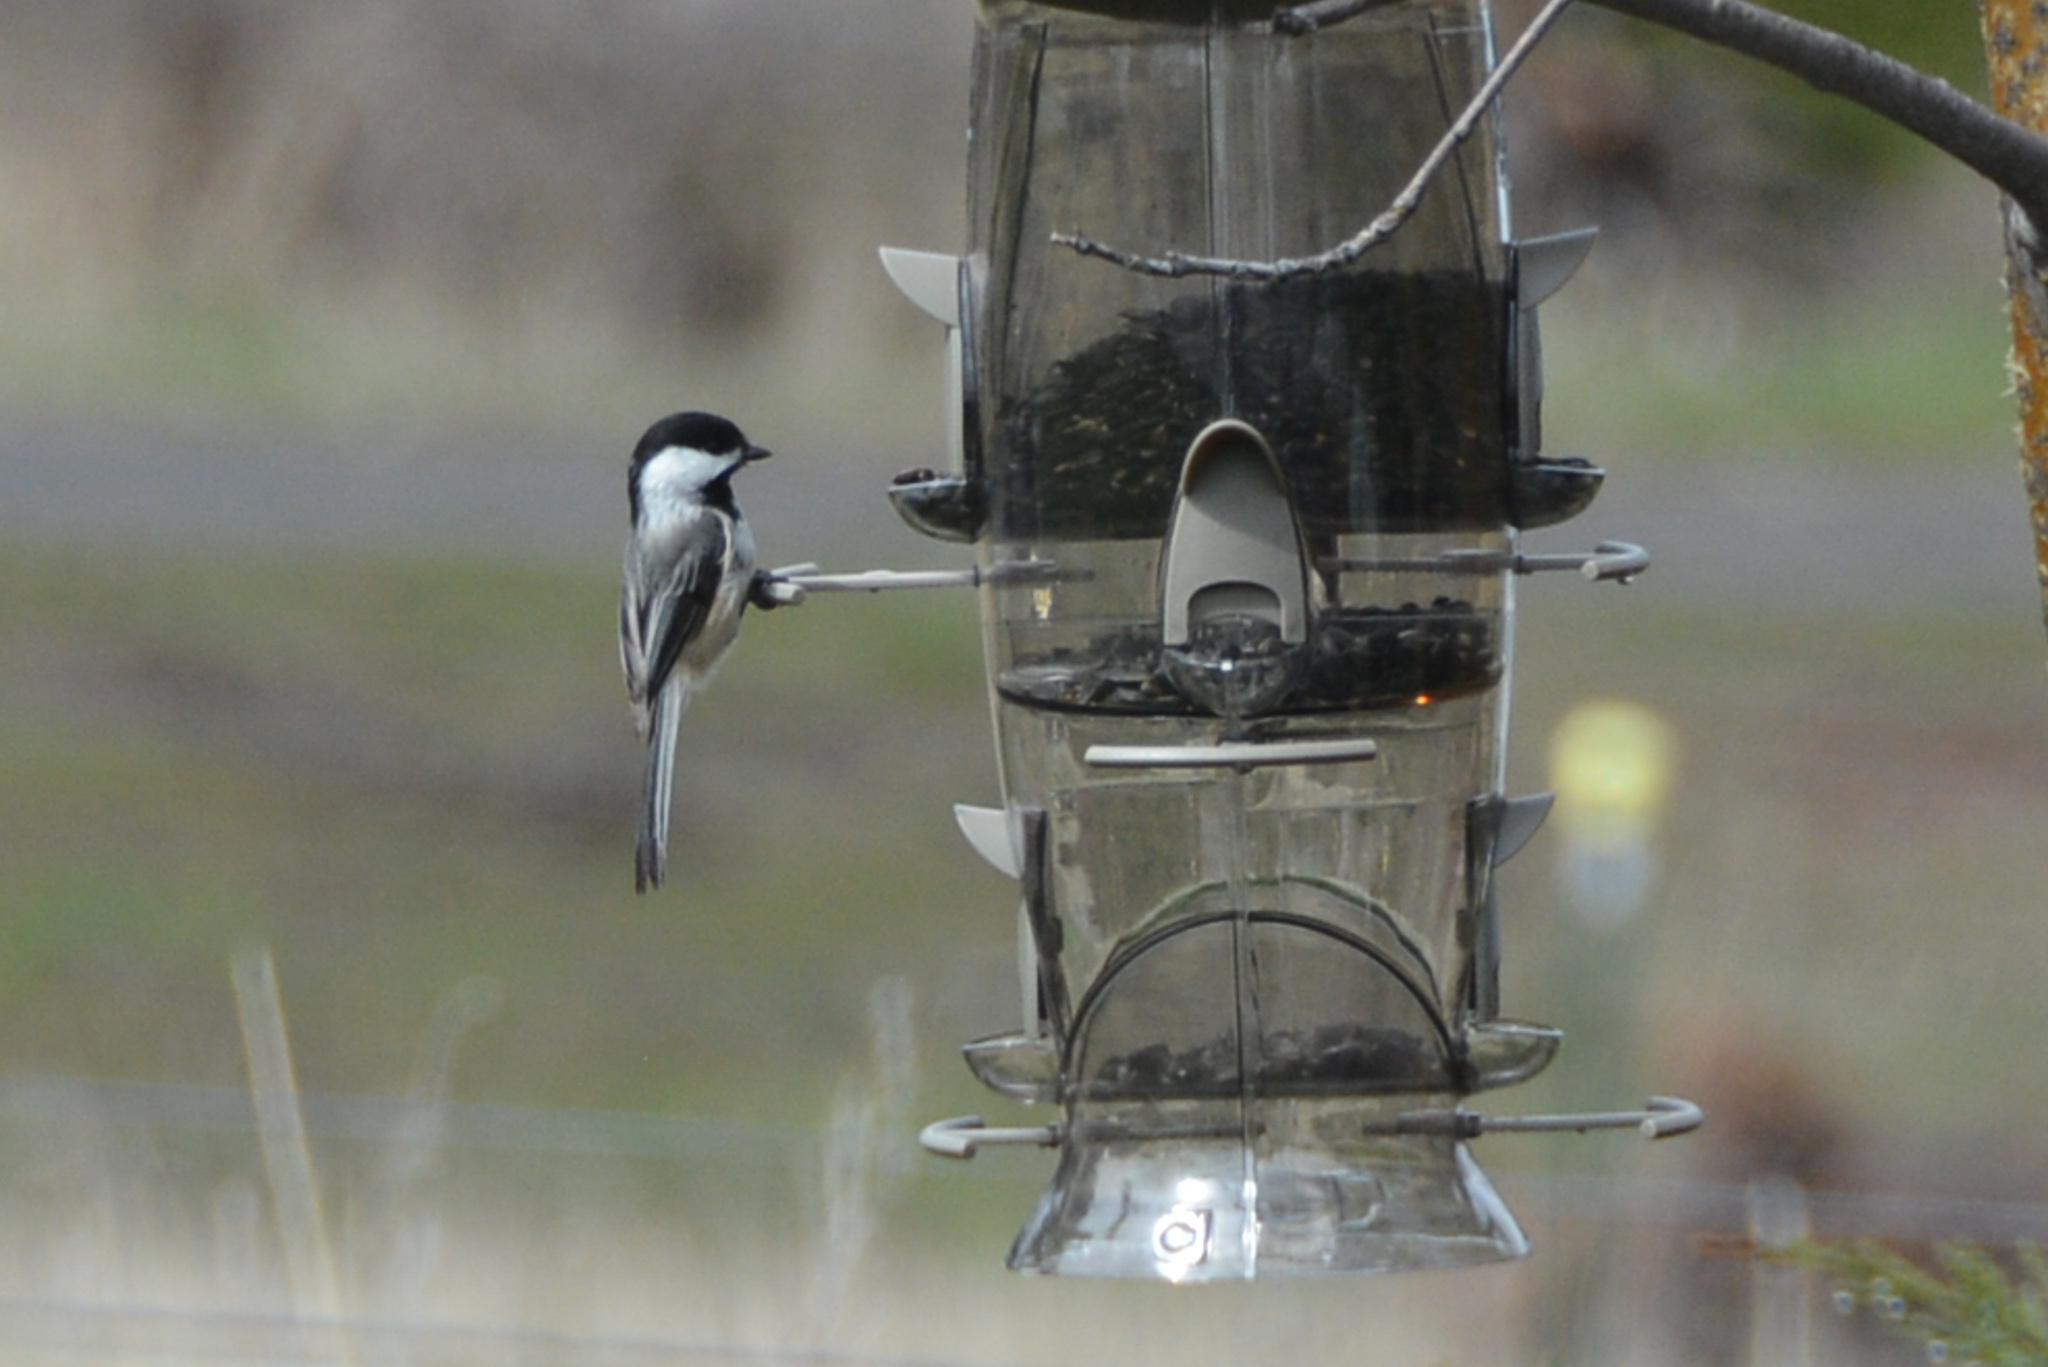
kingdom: Animalia
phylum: Chordata
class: Aves
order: Passeriformes
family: Paridae
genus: Poecile
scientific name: Poecile atricapillus
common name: Black-capped chickadee
